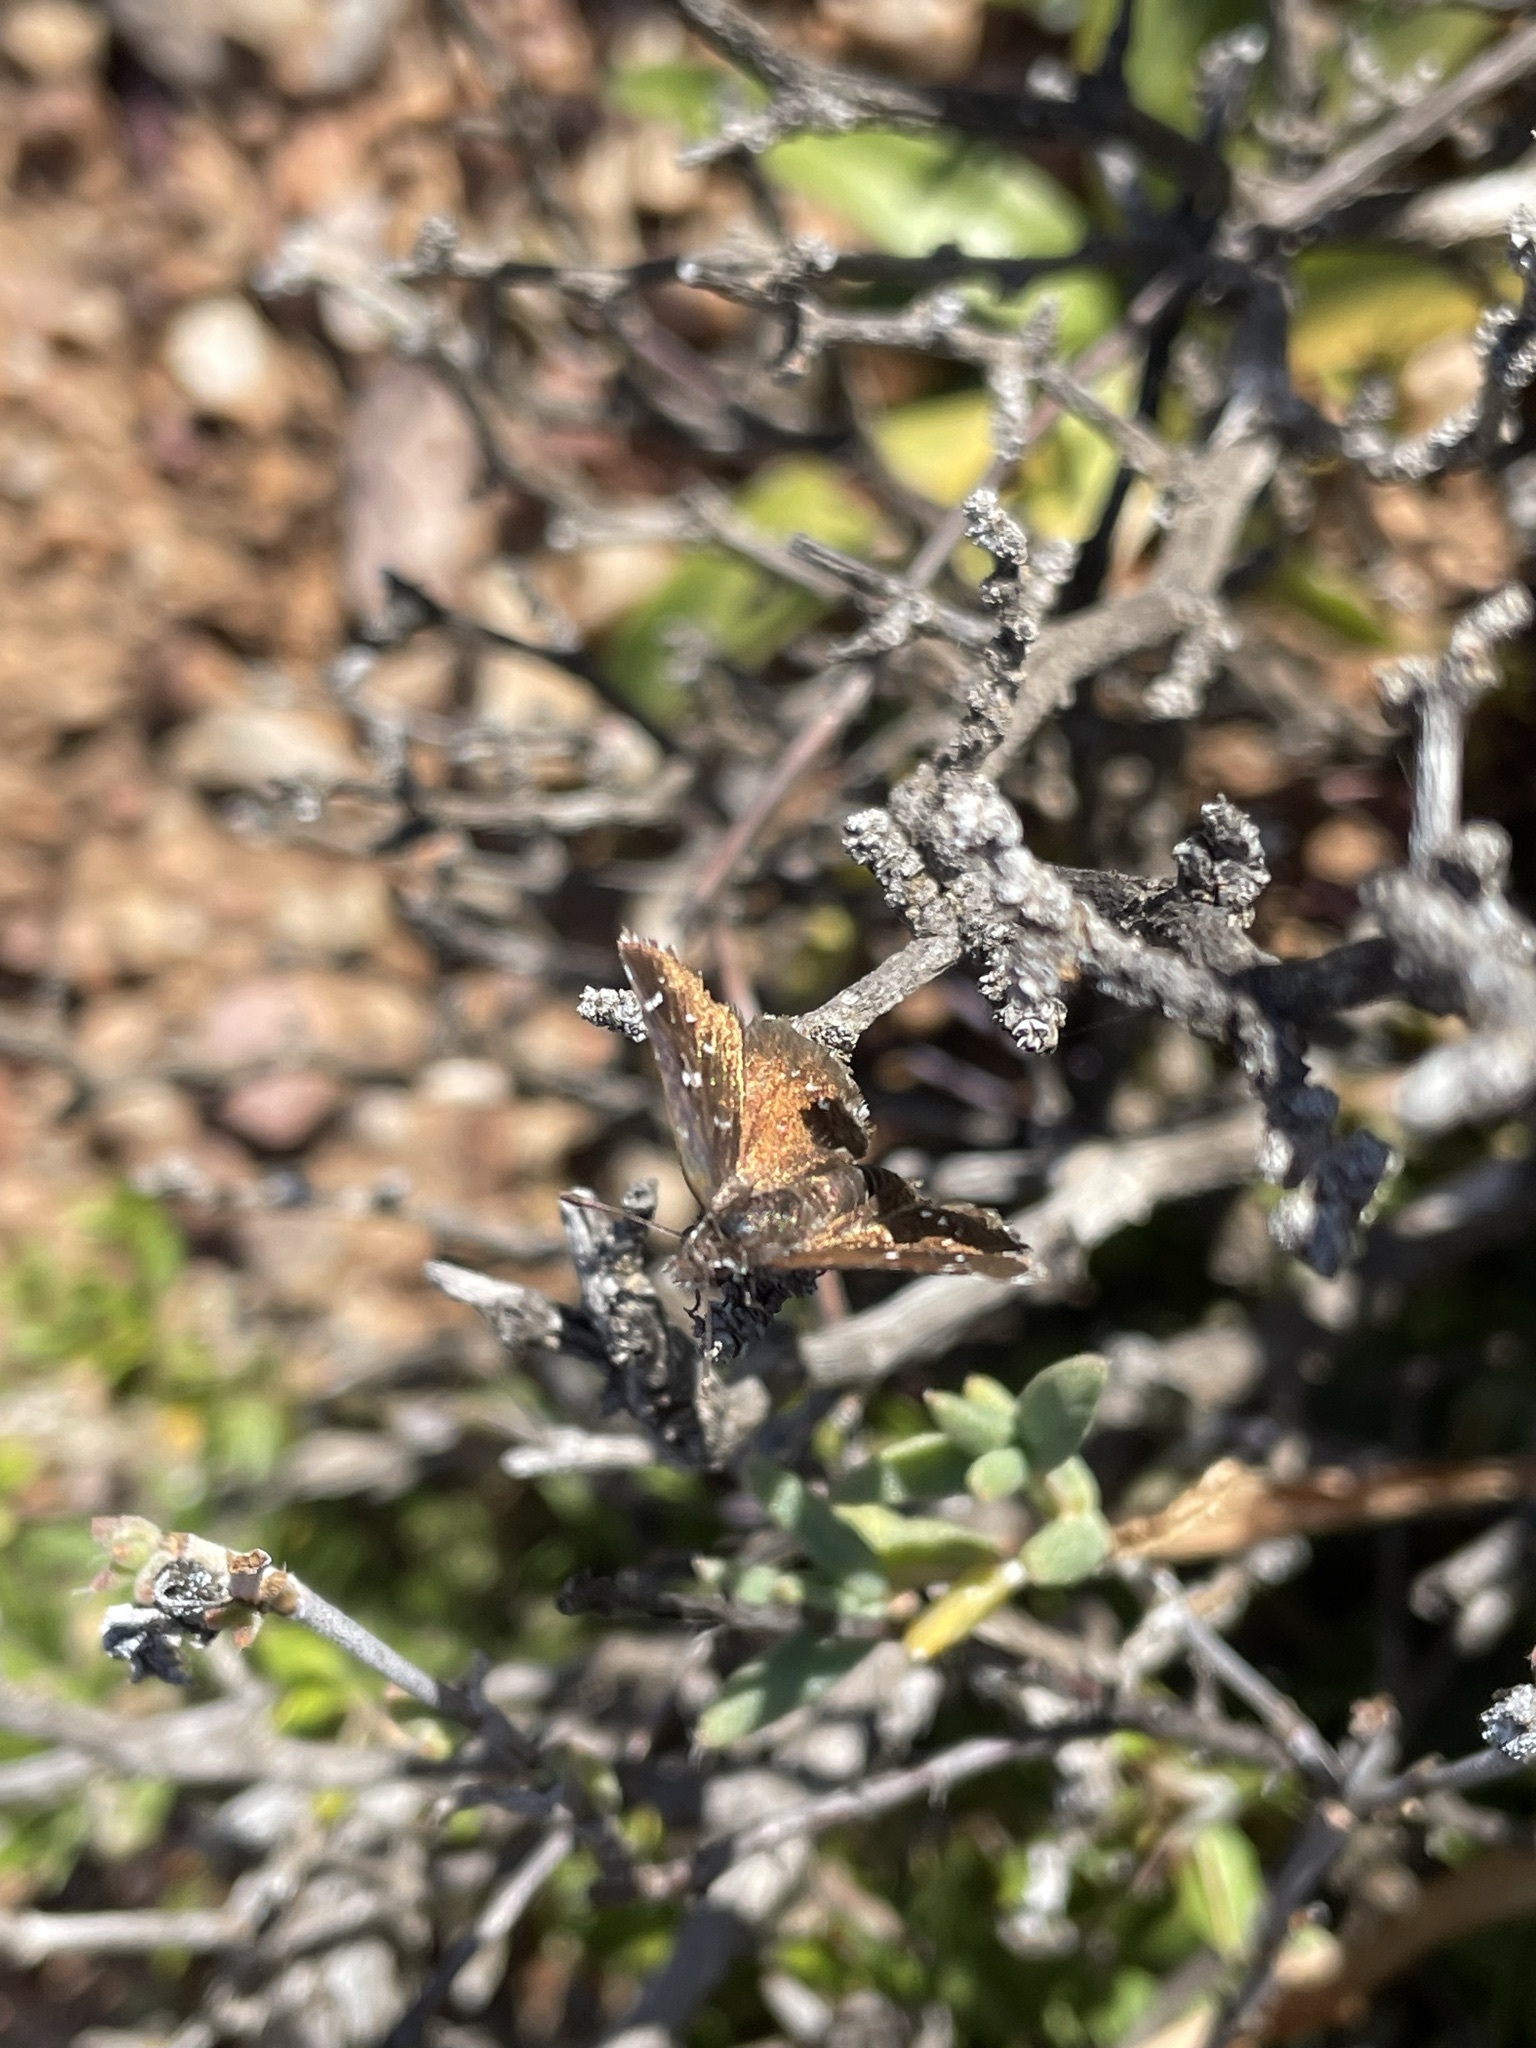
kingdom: Animalia
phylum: Arthropoda
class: Insecta
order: Lepidoptera
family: Hesperiidae
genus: Alenia
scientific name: Alenia sandaster
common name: Karoo dancer
